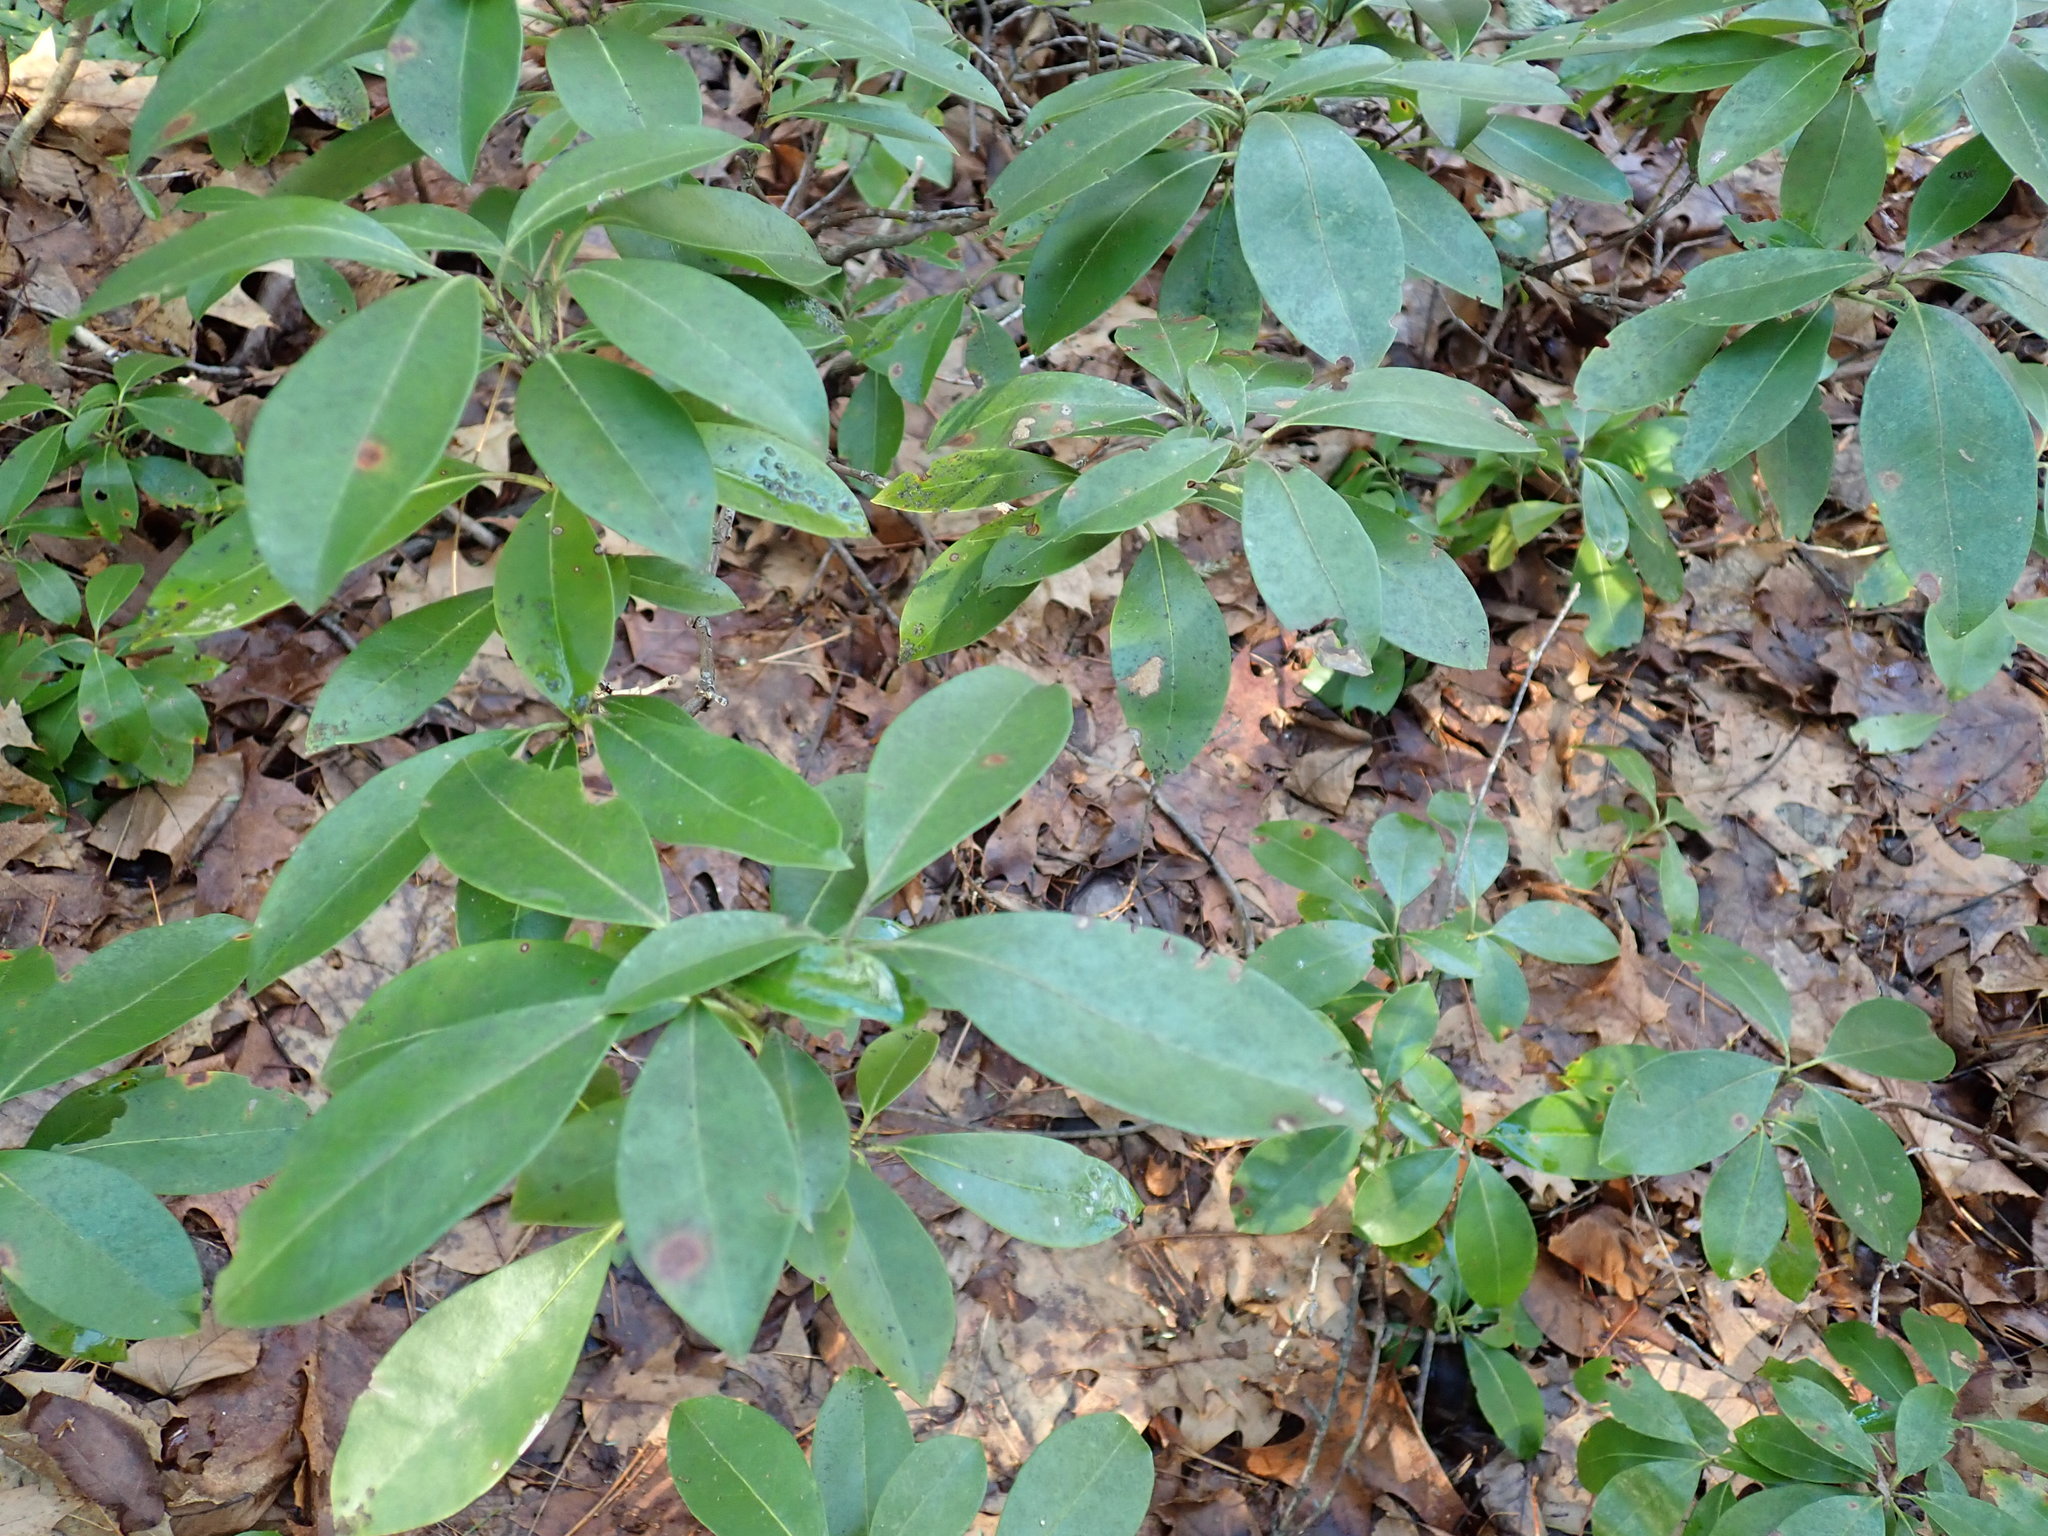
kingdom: Plantae
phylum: Tracheophyta
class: Magnoliopsida
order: Ericales
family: Ericaceae
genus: Kalmia
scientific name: Kalmia latifolia
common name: Mountain-laurel
